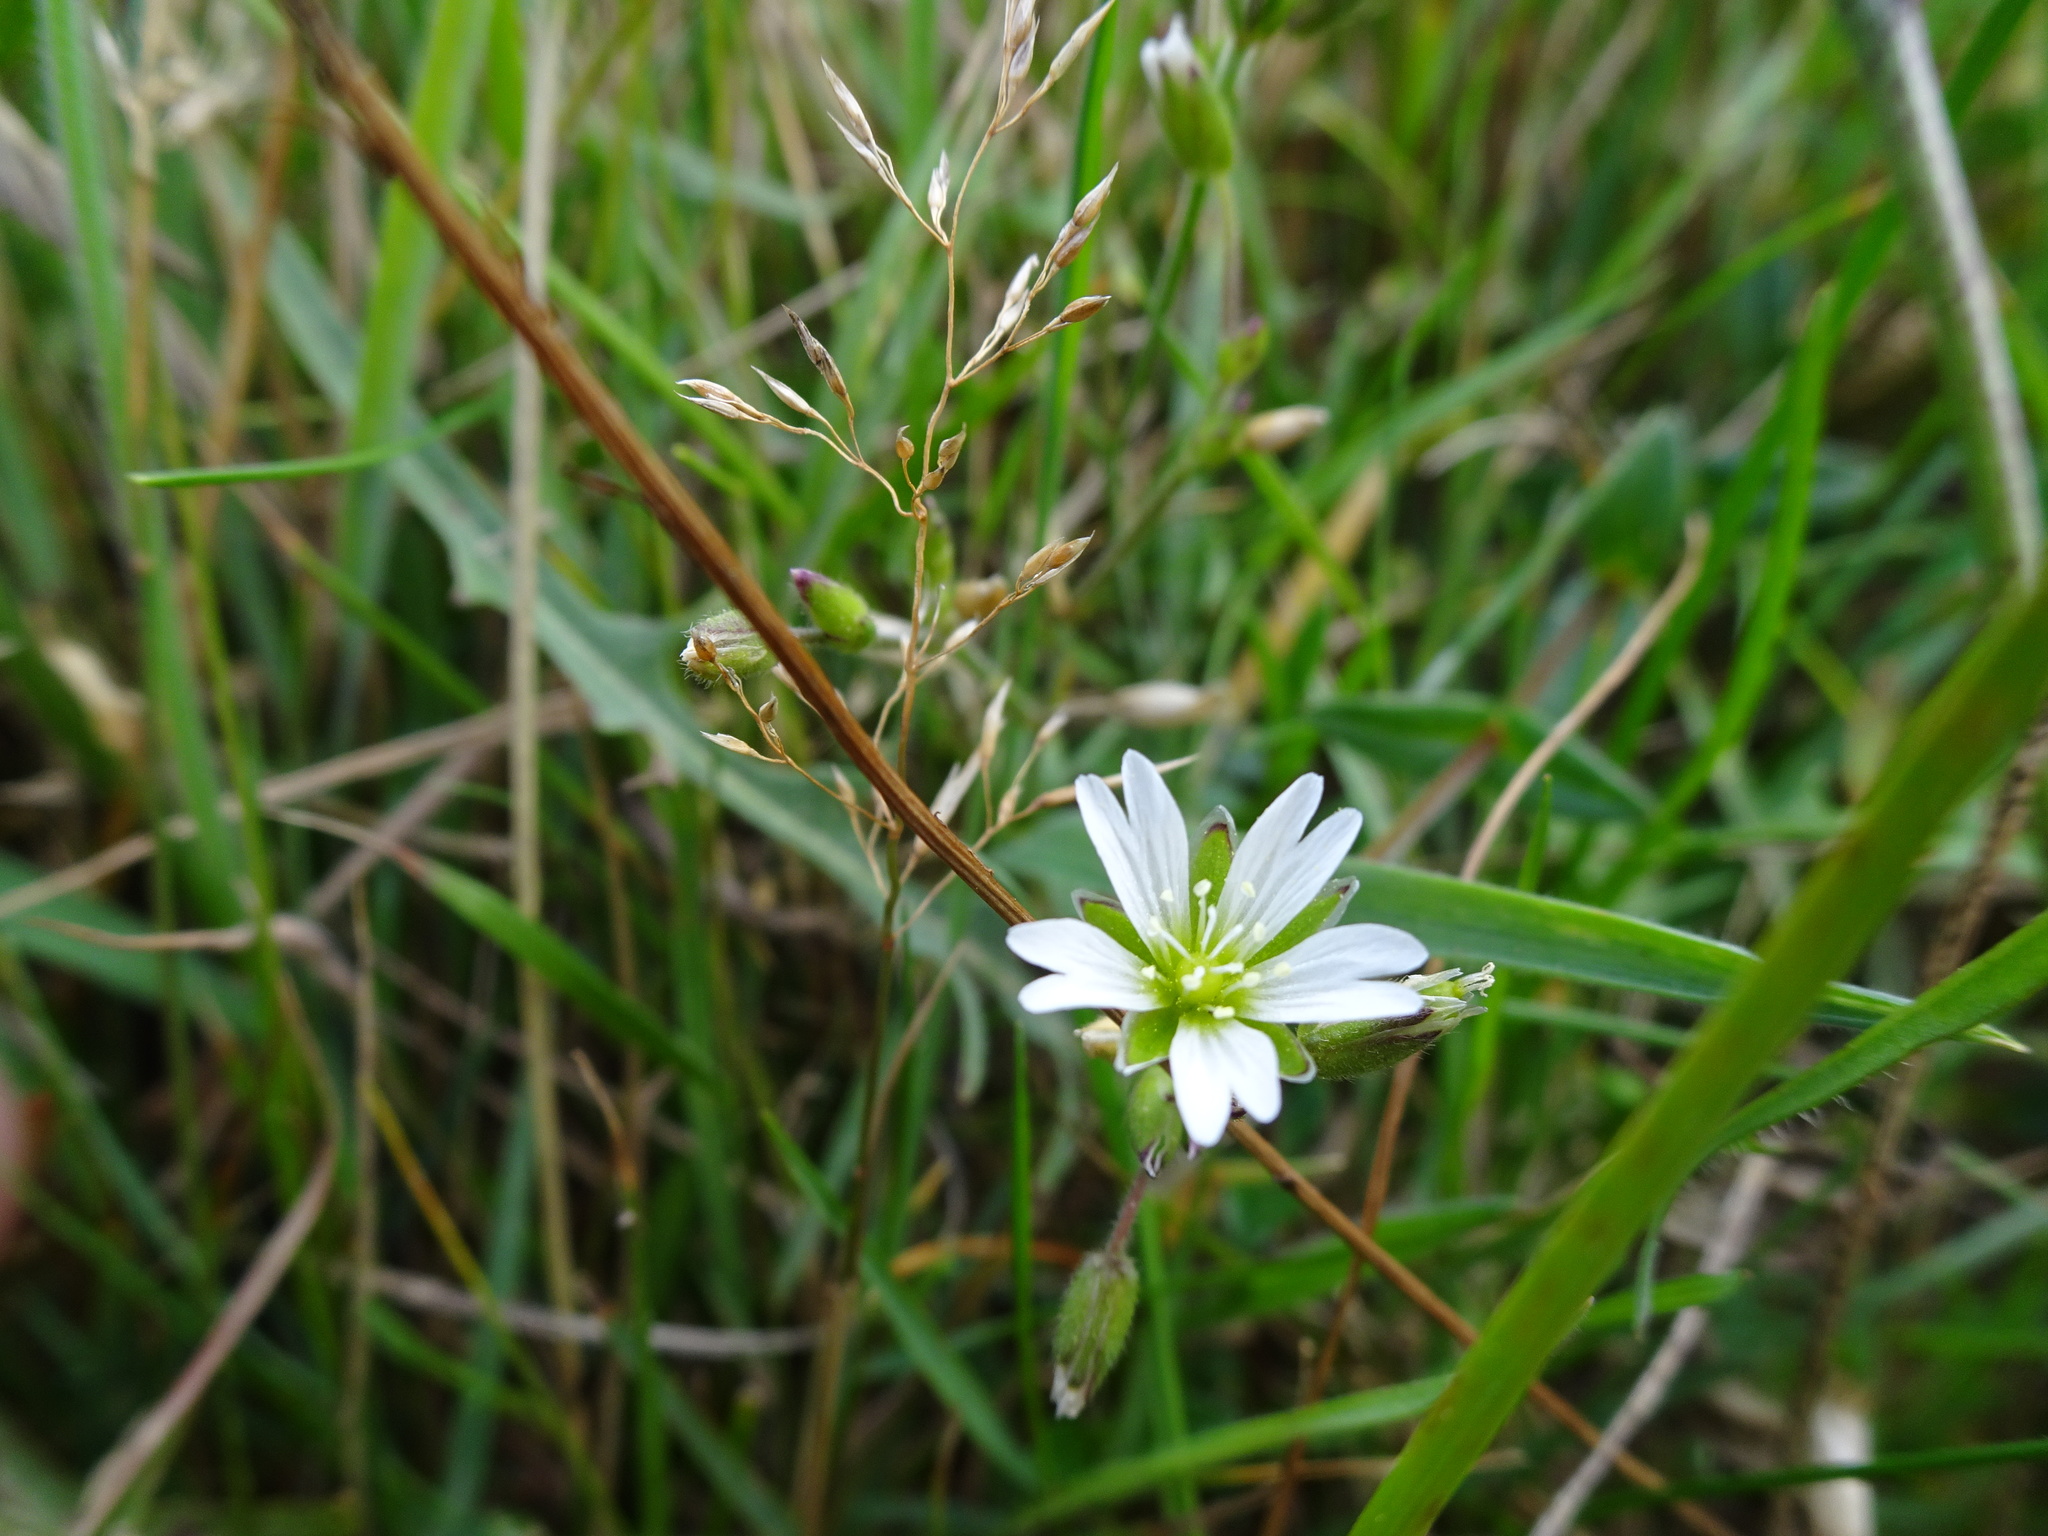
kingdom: Plantae
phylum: Tracheophyta
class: Magnoliopsida
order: Caryophyllales
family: Caryophyllaceae
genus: Cerastium
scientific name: Cerastium fontanum
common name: Common mouse-ear
